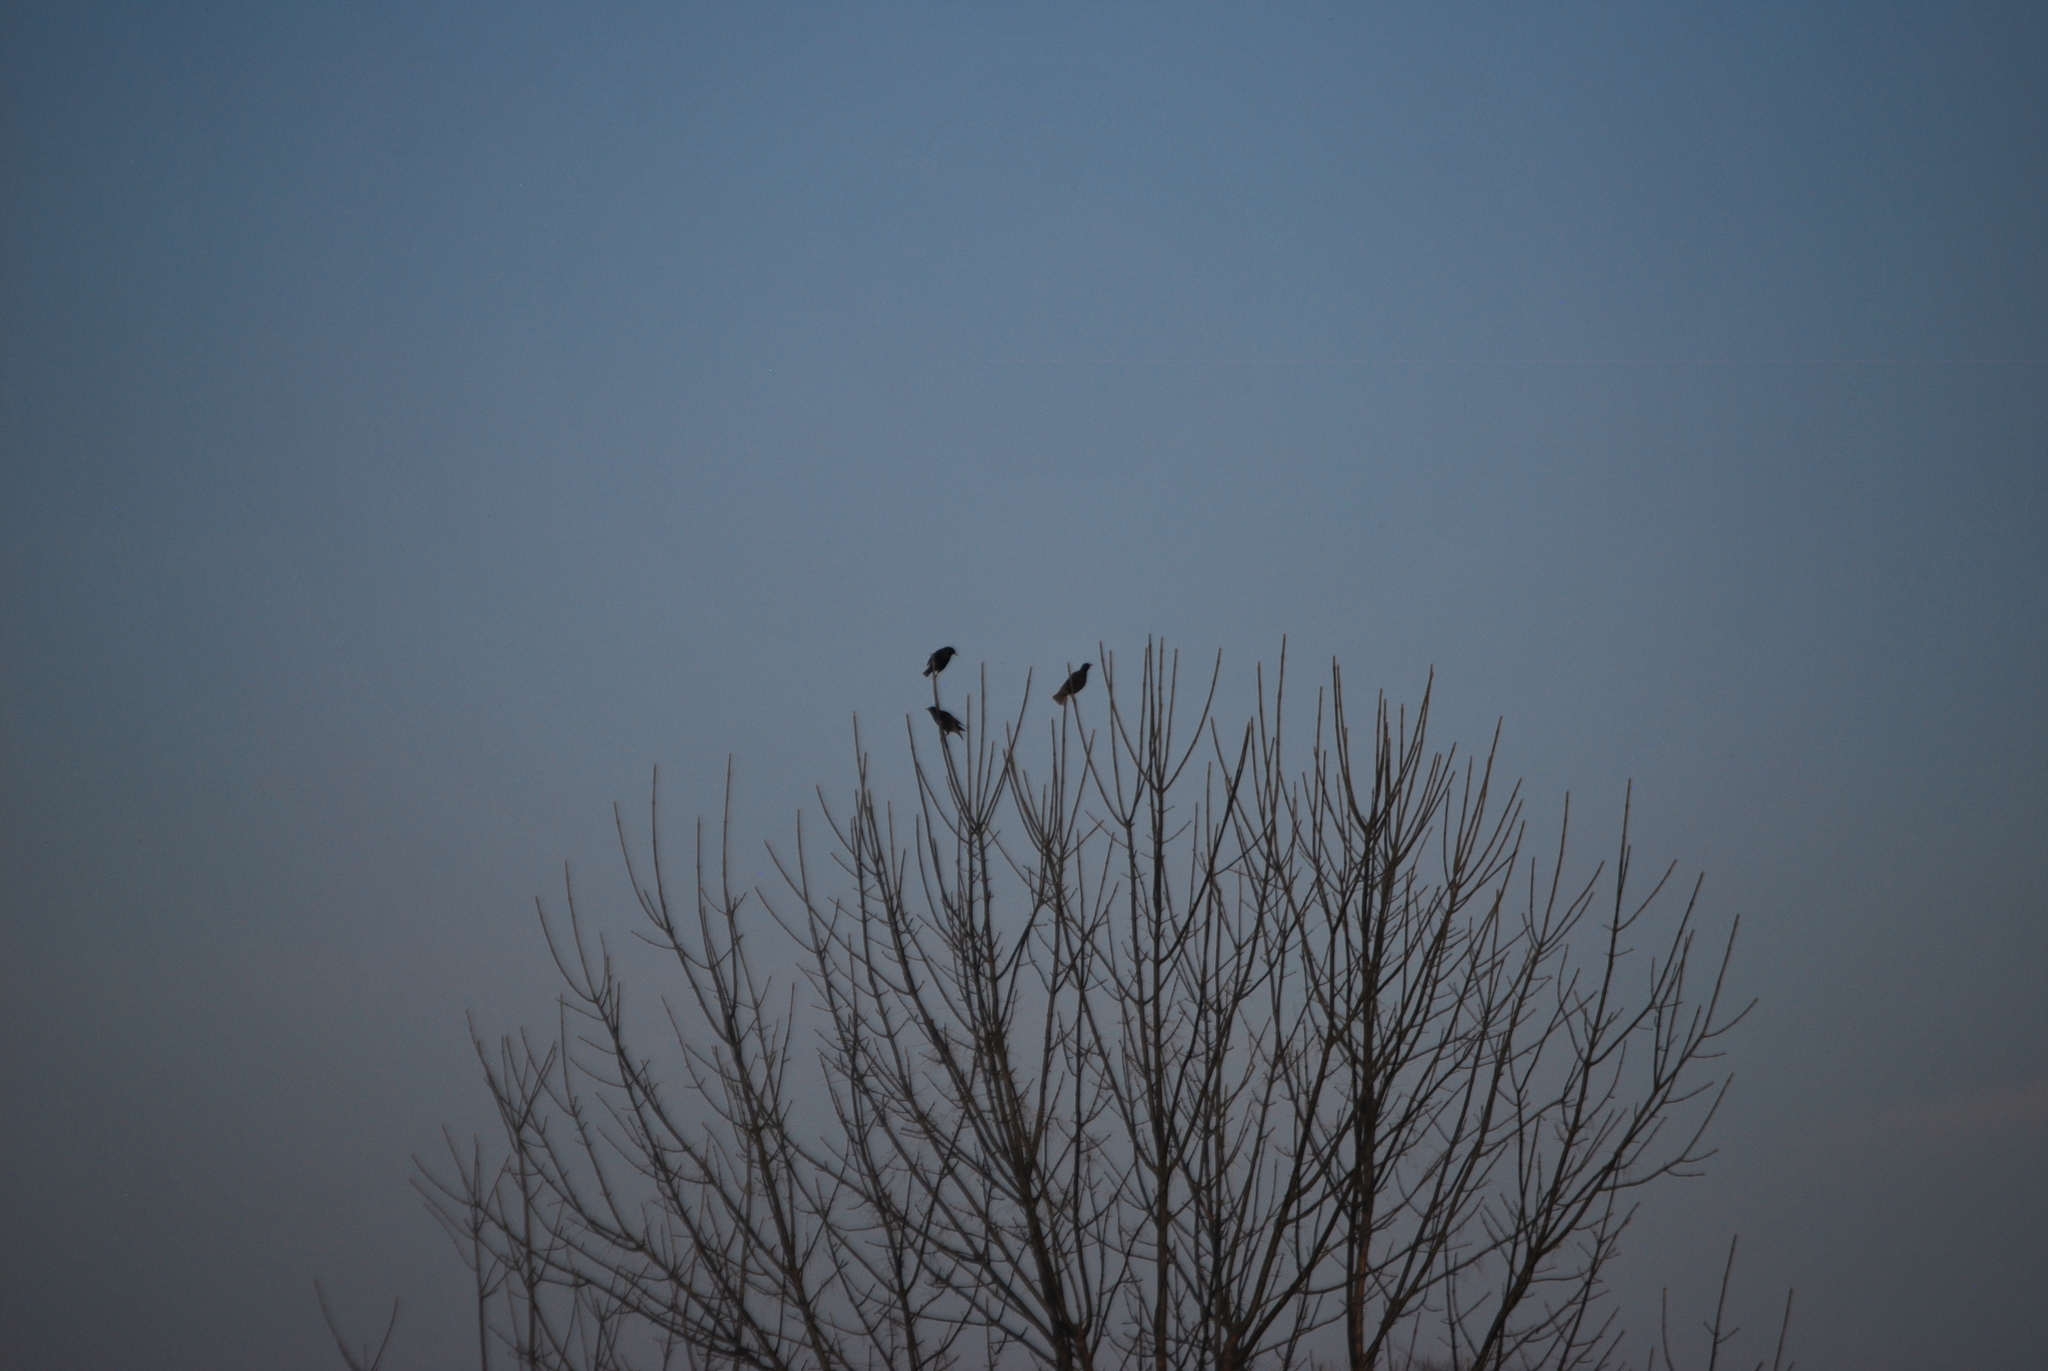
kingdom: Animalia
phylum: Chordata
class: Aves
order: Passeriformes
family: Sturnidae
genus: Sturnus
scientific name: Sturnus vulgaris
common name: Common starling
